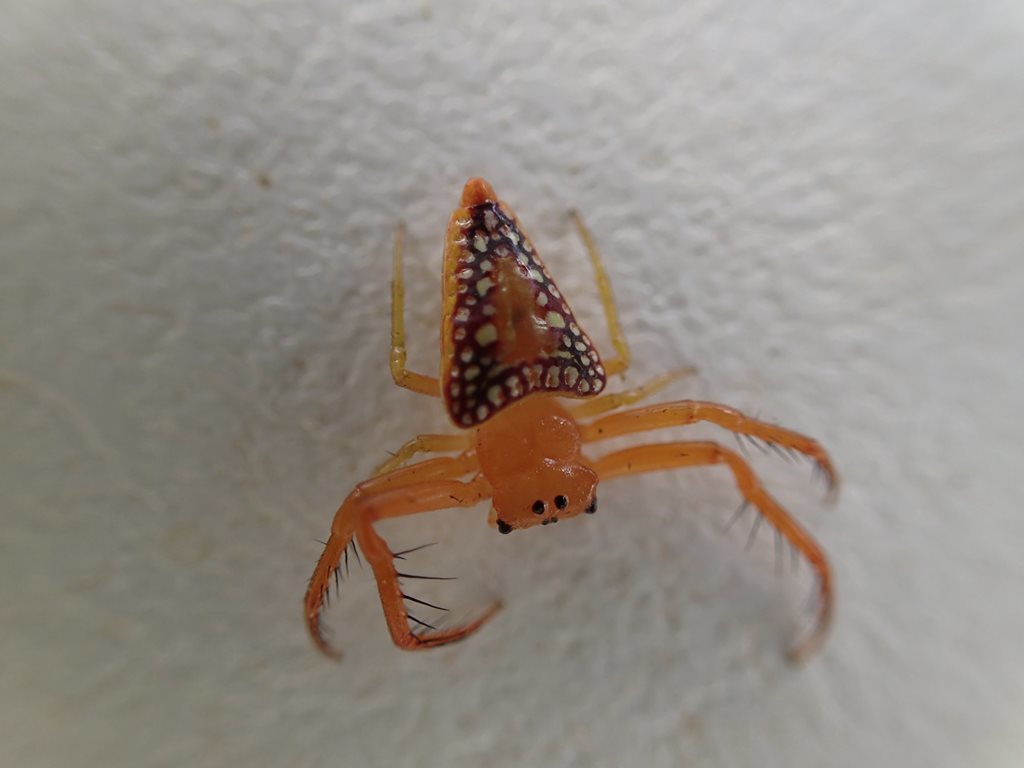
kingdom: Animalia
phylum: Arthropoda
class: Arachnida
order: Araneae
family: Arkyidae
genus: Arkys
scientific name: Arkys walckenaeri
